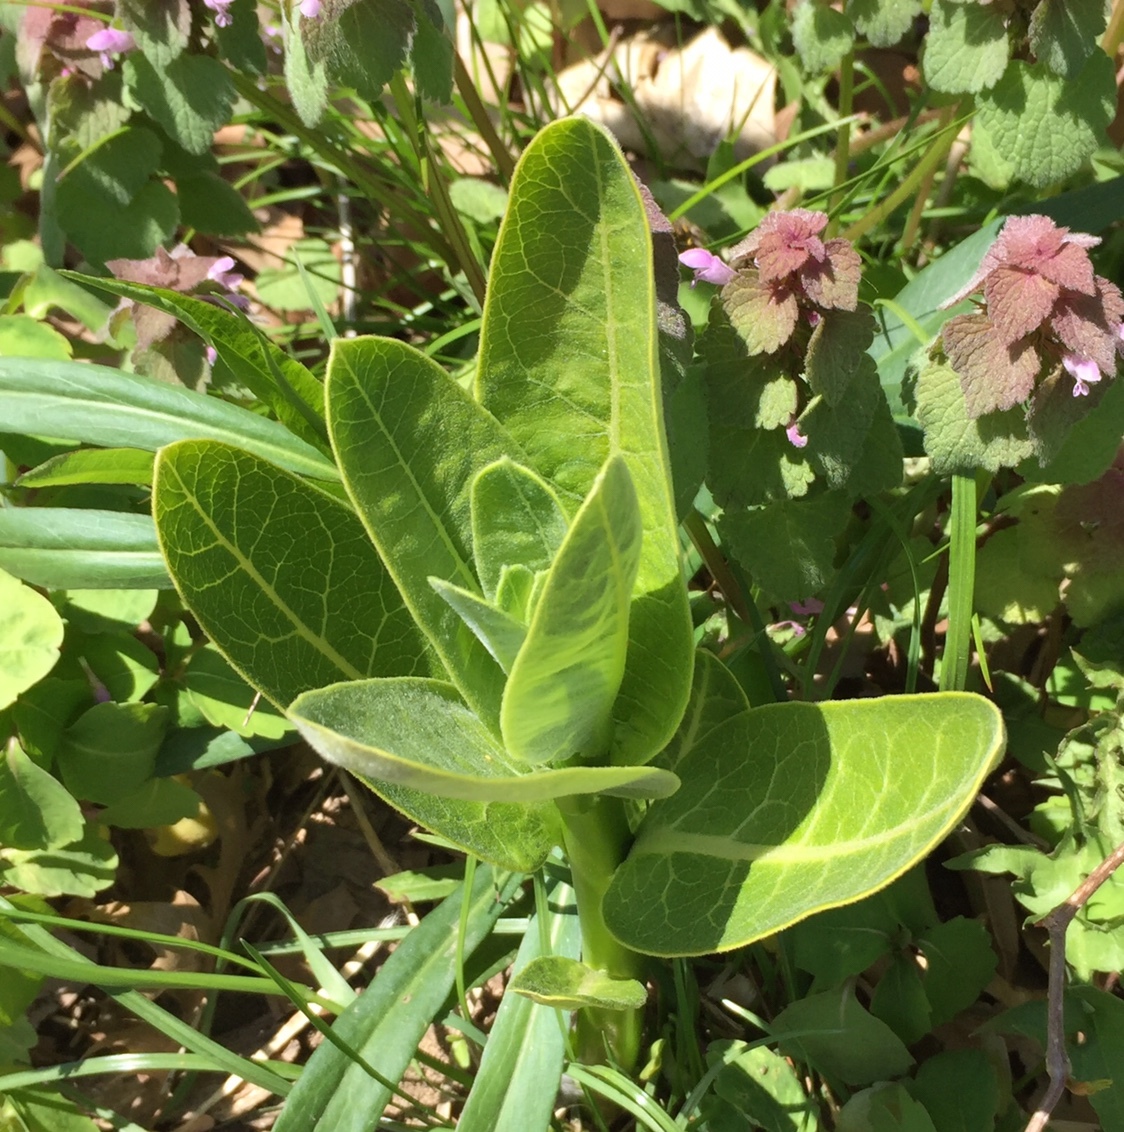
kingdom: Plantae
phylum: Tracheophyta
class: Magnoliopsida
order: Gentianales
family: Apocynaceae
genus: Asclepias
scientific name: Asclepias syriaca
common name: Common milkweed
